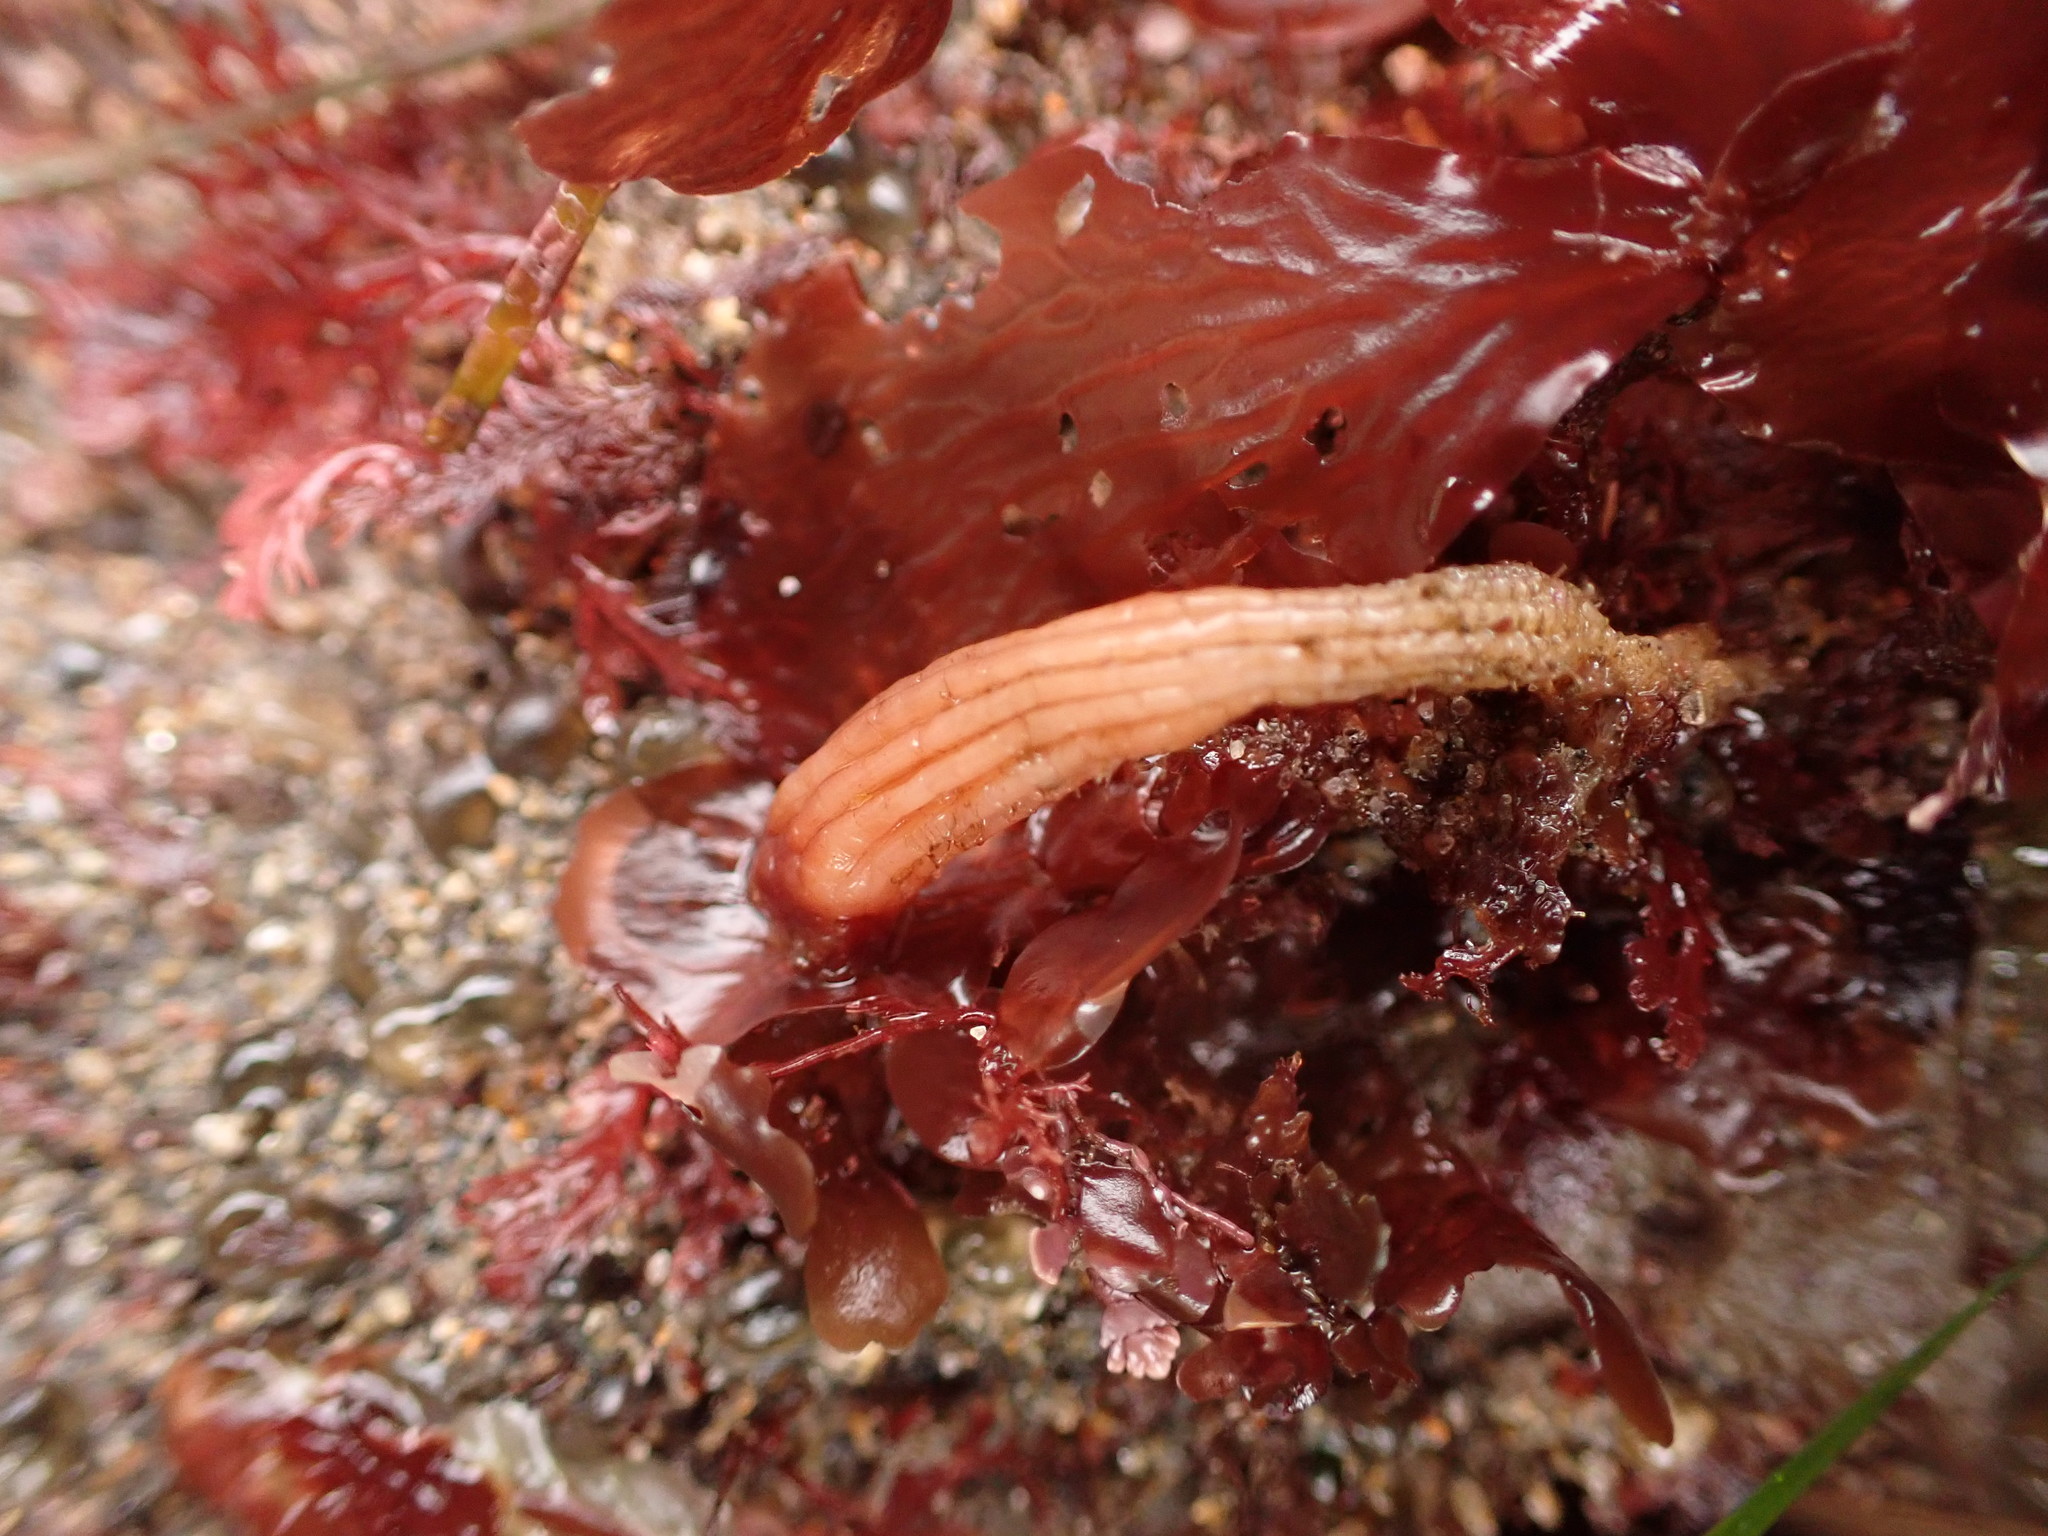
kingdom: Animalia
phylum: Chordata
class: Ascidiacea
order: Stolidobranchia
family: Styelidae
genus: Styela
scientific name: Styela montereyensis
